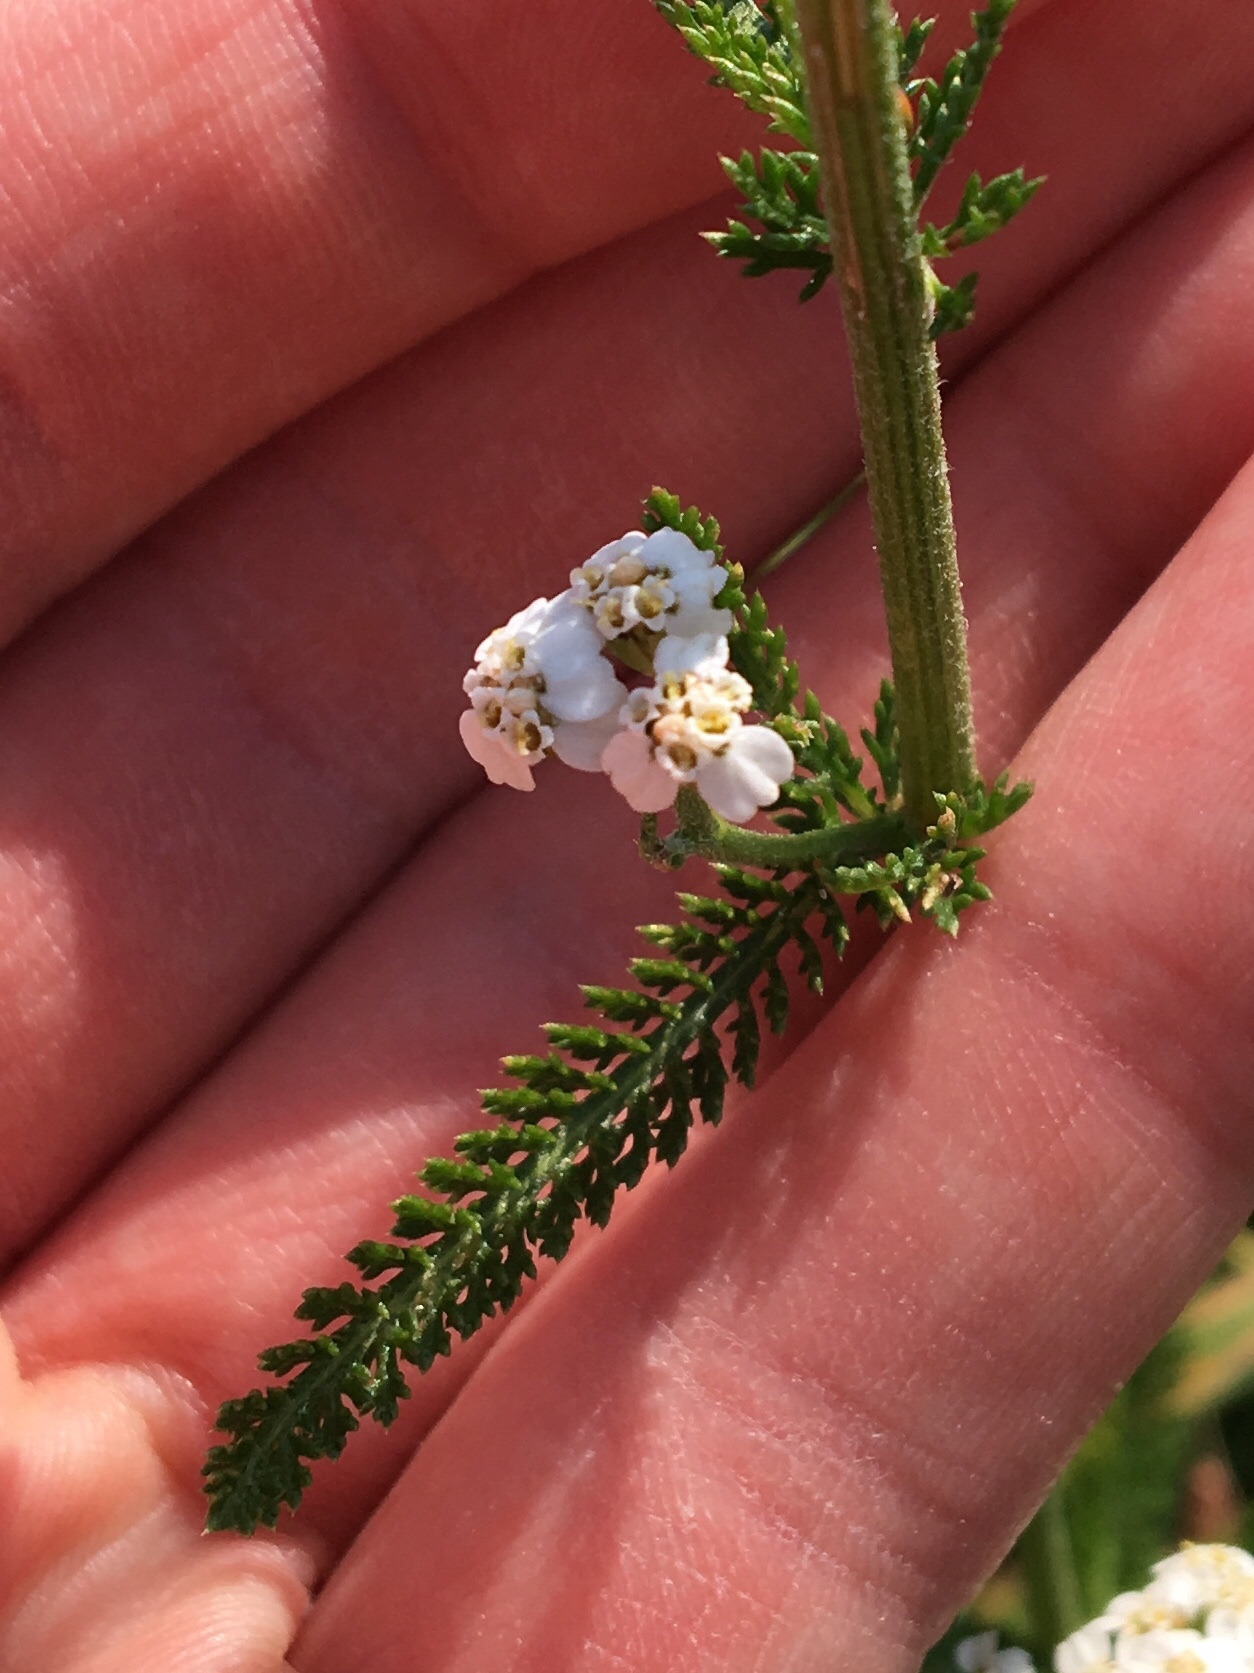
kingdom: Plantae
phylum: Tracheophyta
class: Magnoliopsida
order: Asterales
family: Asteraceae
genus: Achillea
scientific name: Achillea millefolium
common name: Yarrow
